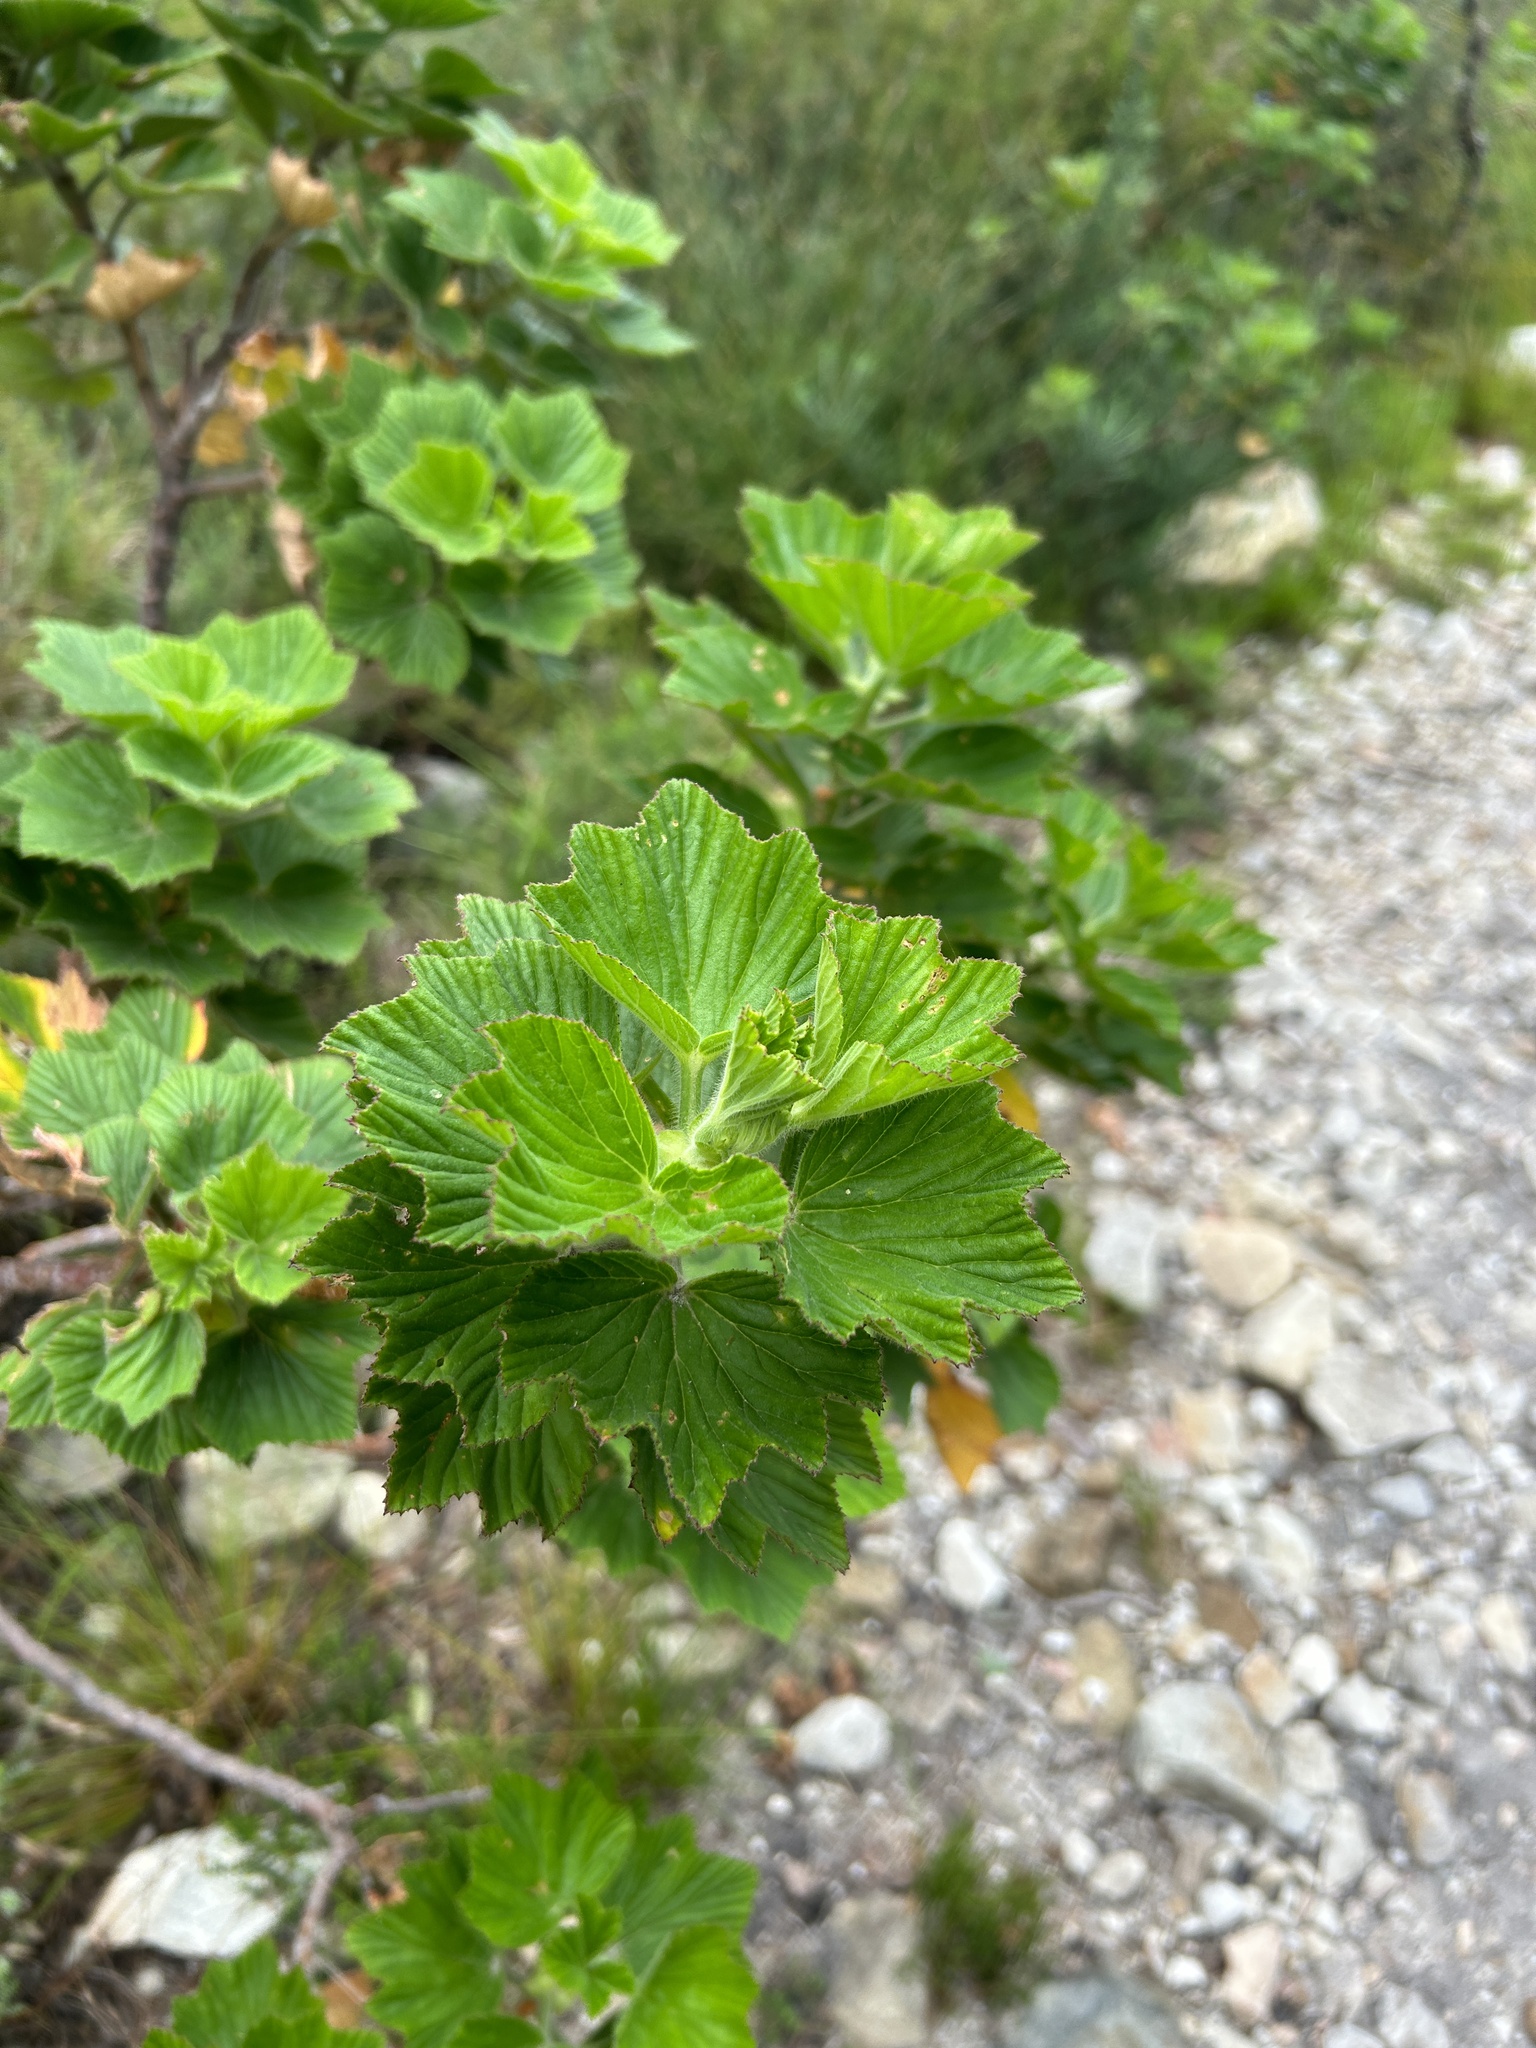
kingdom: Plantae
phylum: Tracheophyta
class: Magnoliopsida
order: Geraniales
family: Geraniaceae
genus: Pelargonium
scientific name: Pelargonium cucullatum
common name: Tree pelargonium
